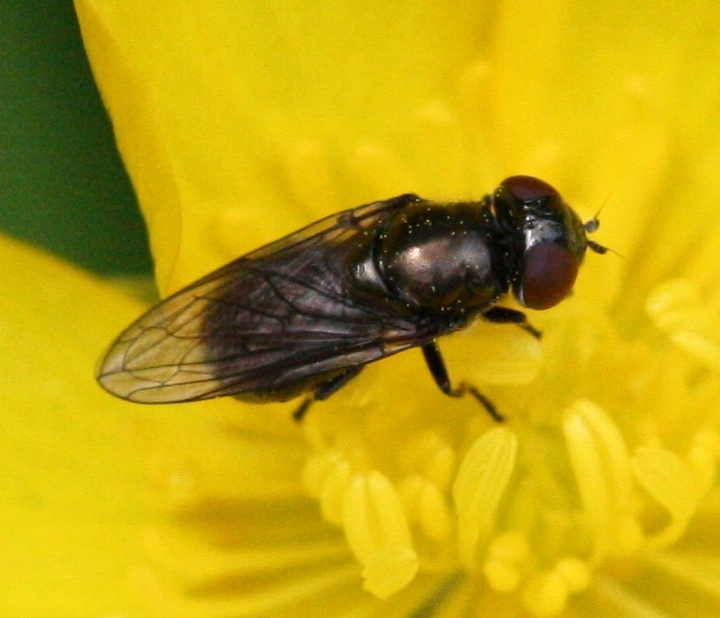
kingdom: Animalia
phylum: Arthropoda
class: Insecta
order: Diptera
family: Syrphidae
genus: Melanogaster
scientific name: Melanogaster
